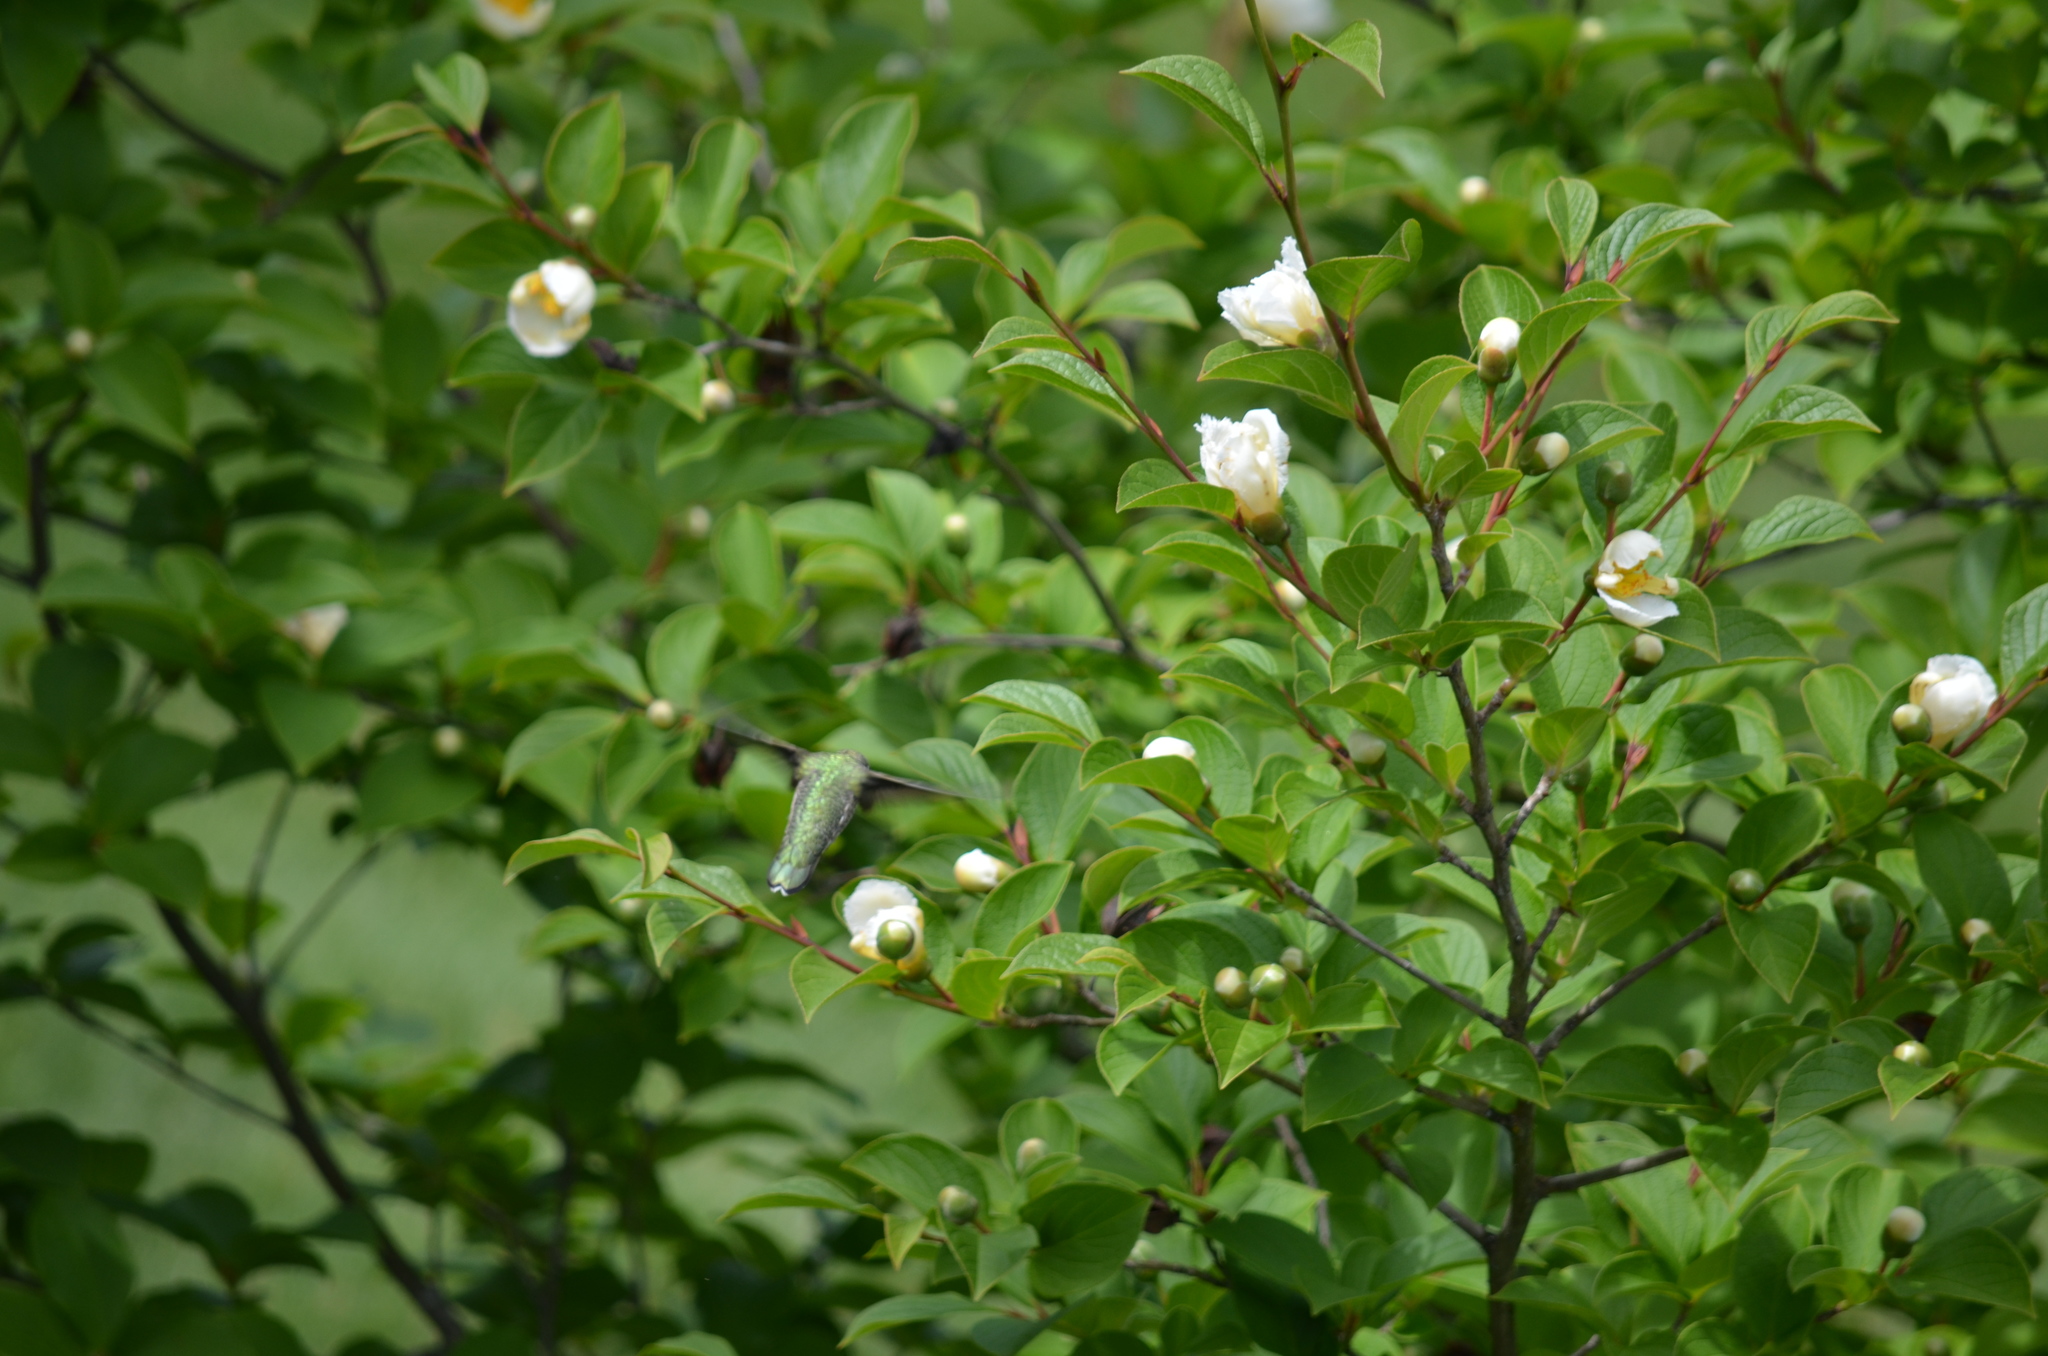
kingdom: Animalia
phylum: Chordata
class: Aves
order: Apodiformes
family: Trochilidae
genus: Calypte
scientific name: Calypte anna
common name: Anna's hummingbird
